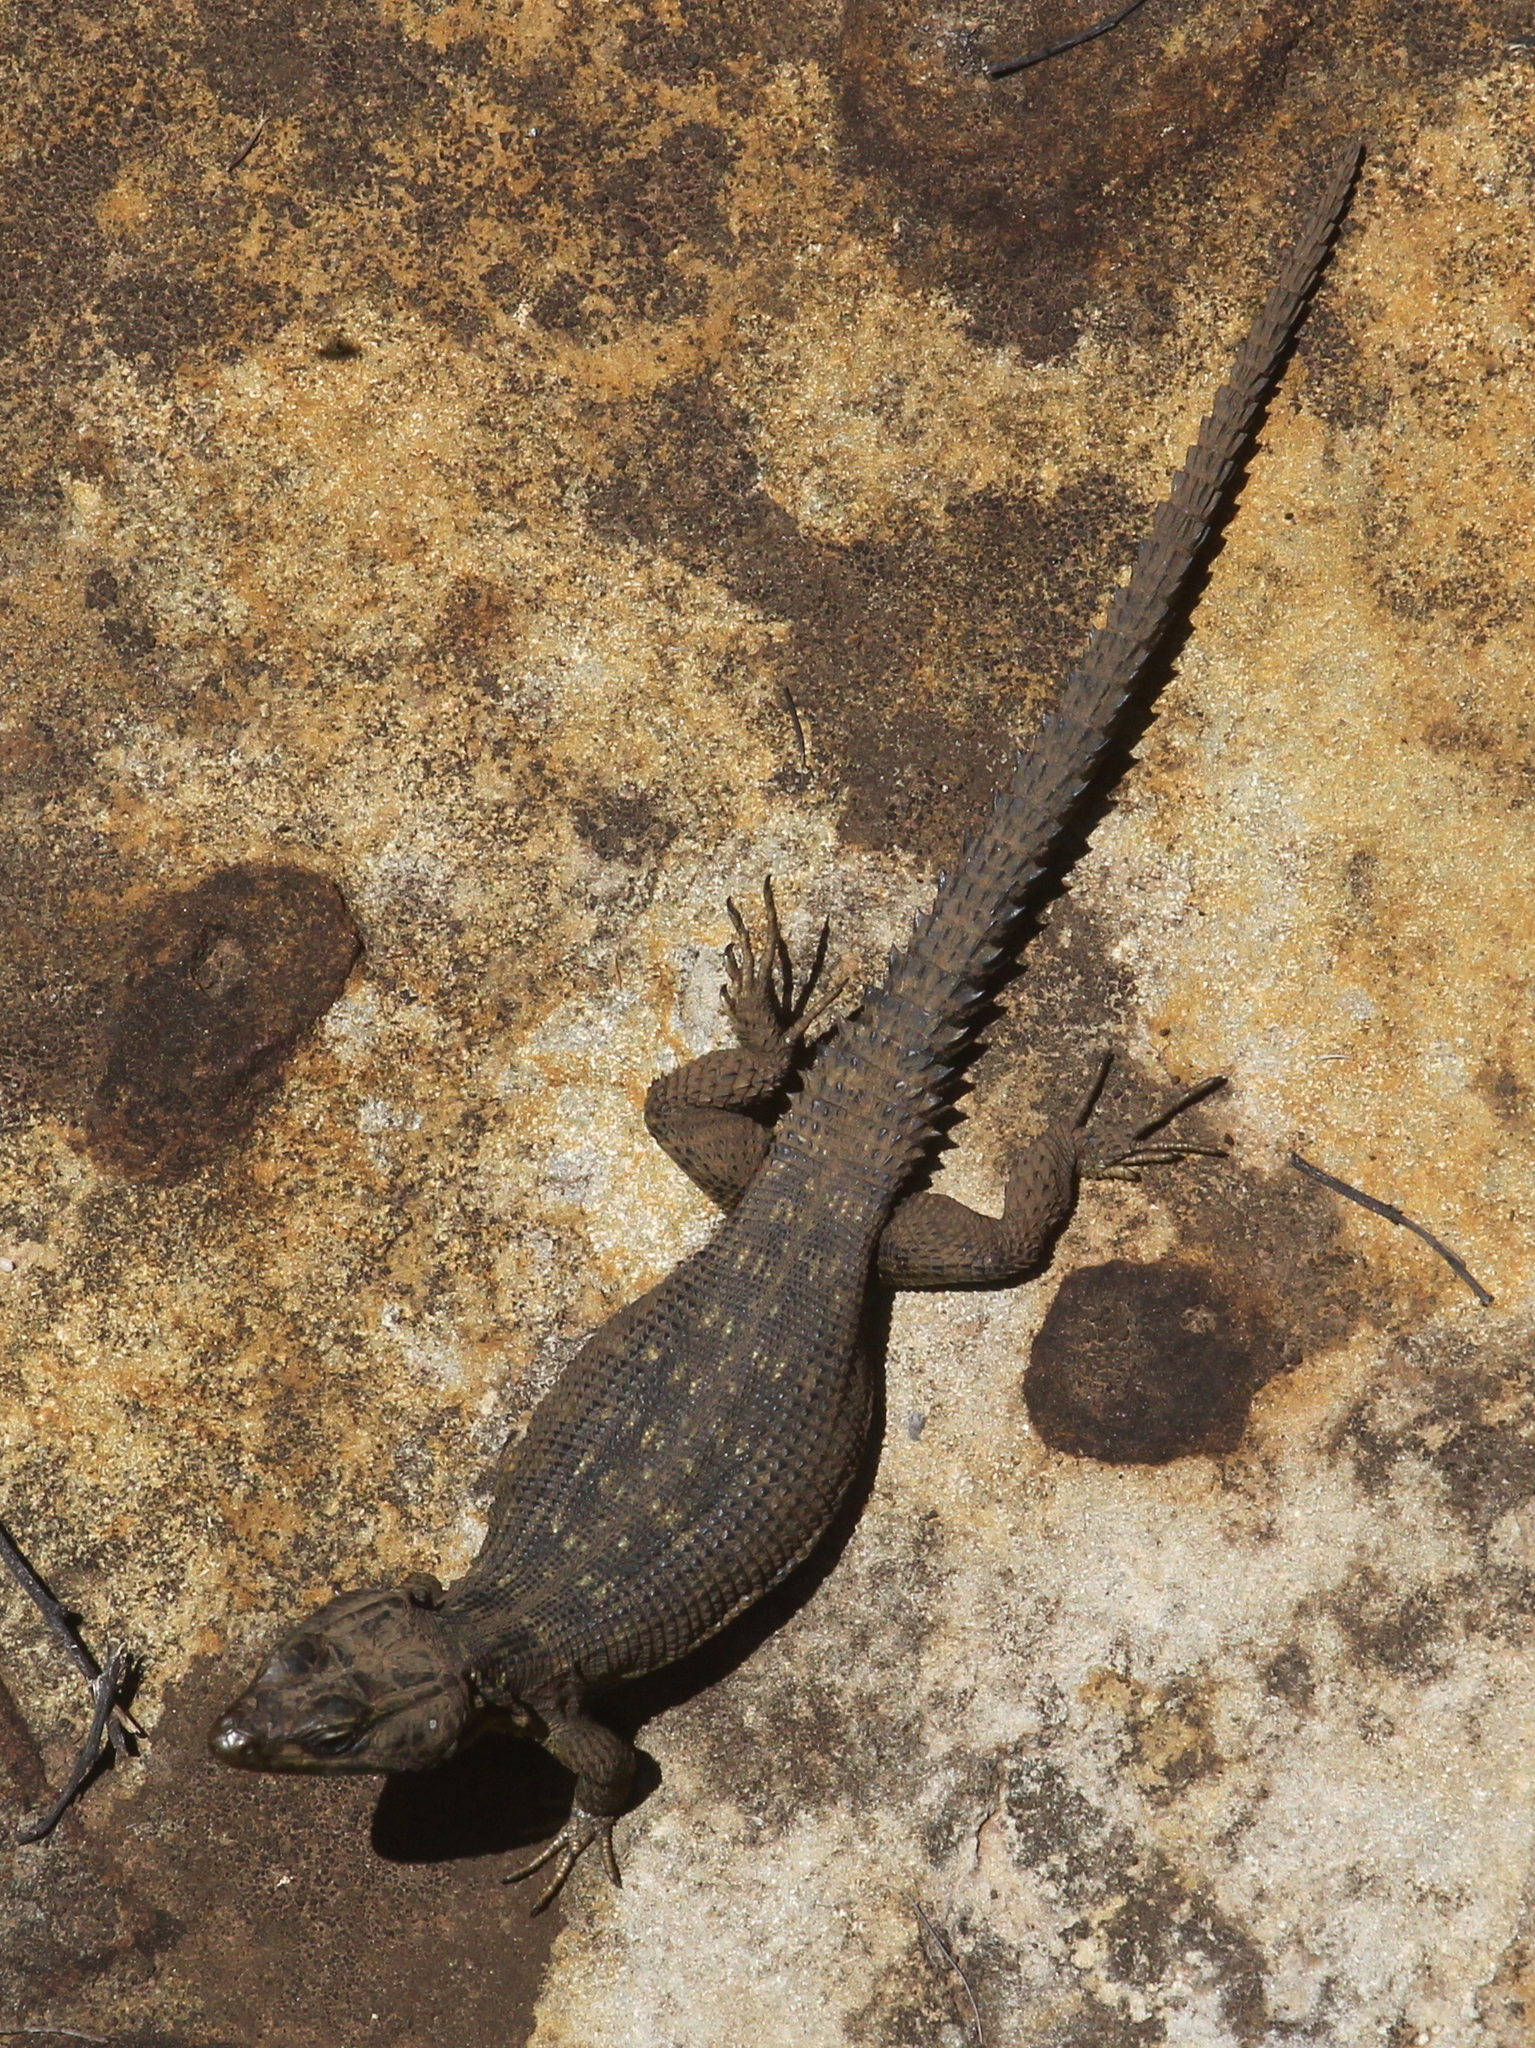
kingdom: Animalia
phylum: Chordata
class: Squamata
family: Cordylidae
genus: Pseudocordylus
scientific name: Pseudocordylus subviridis
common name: Drakensberg crag lizard
